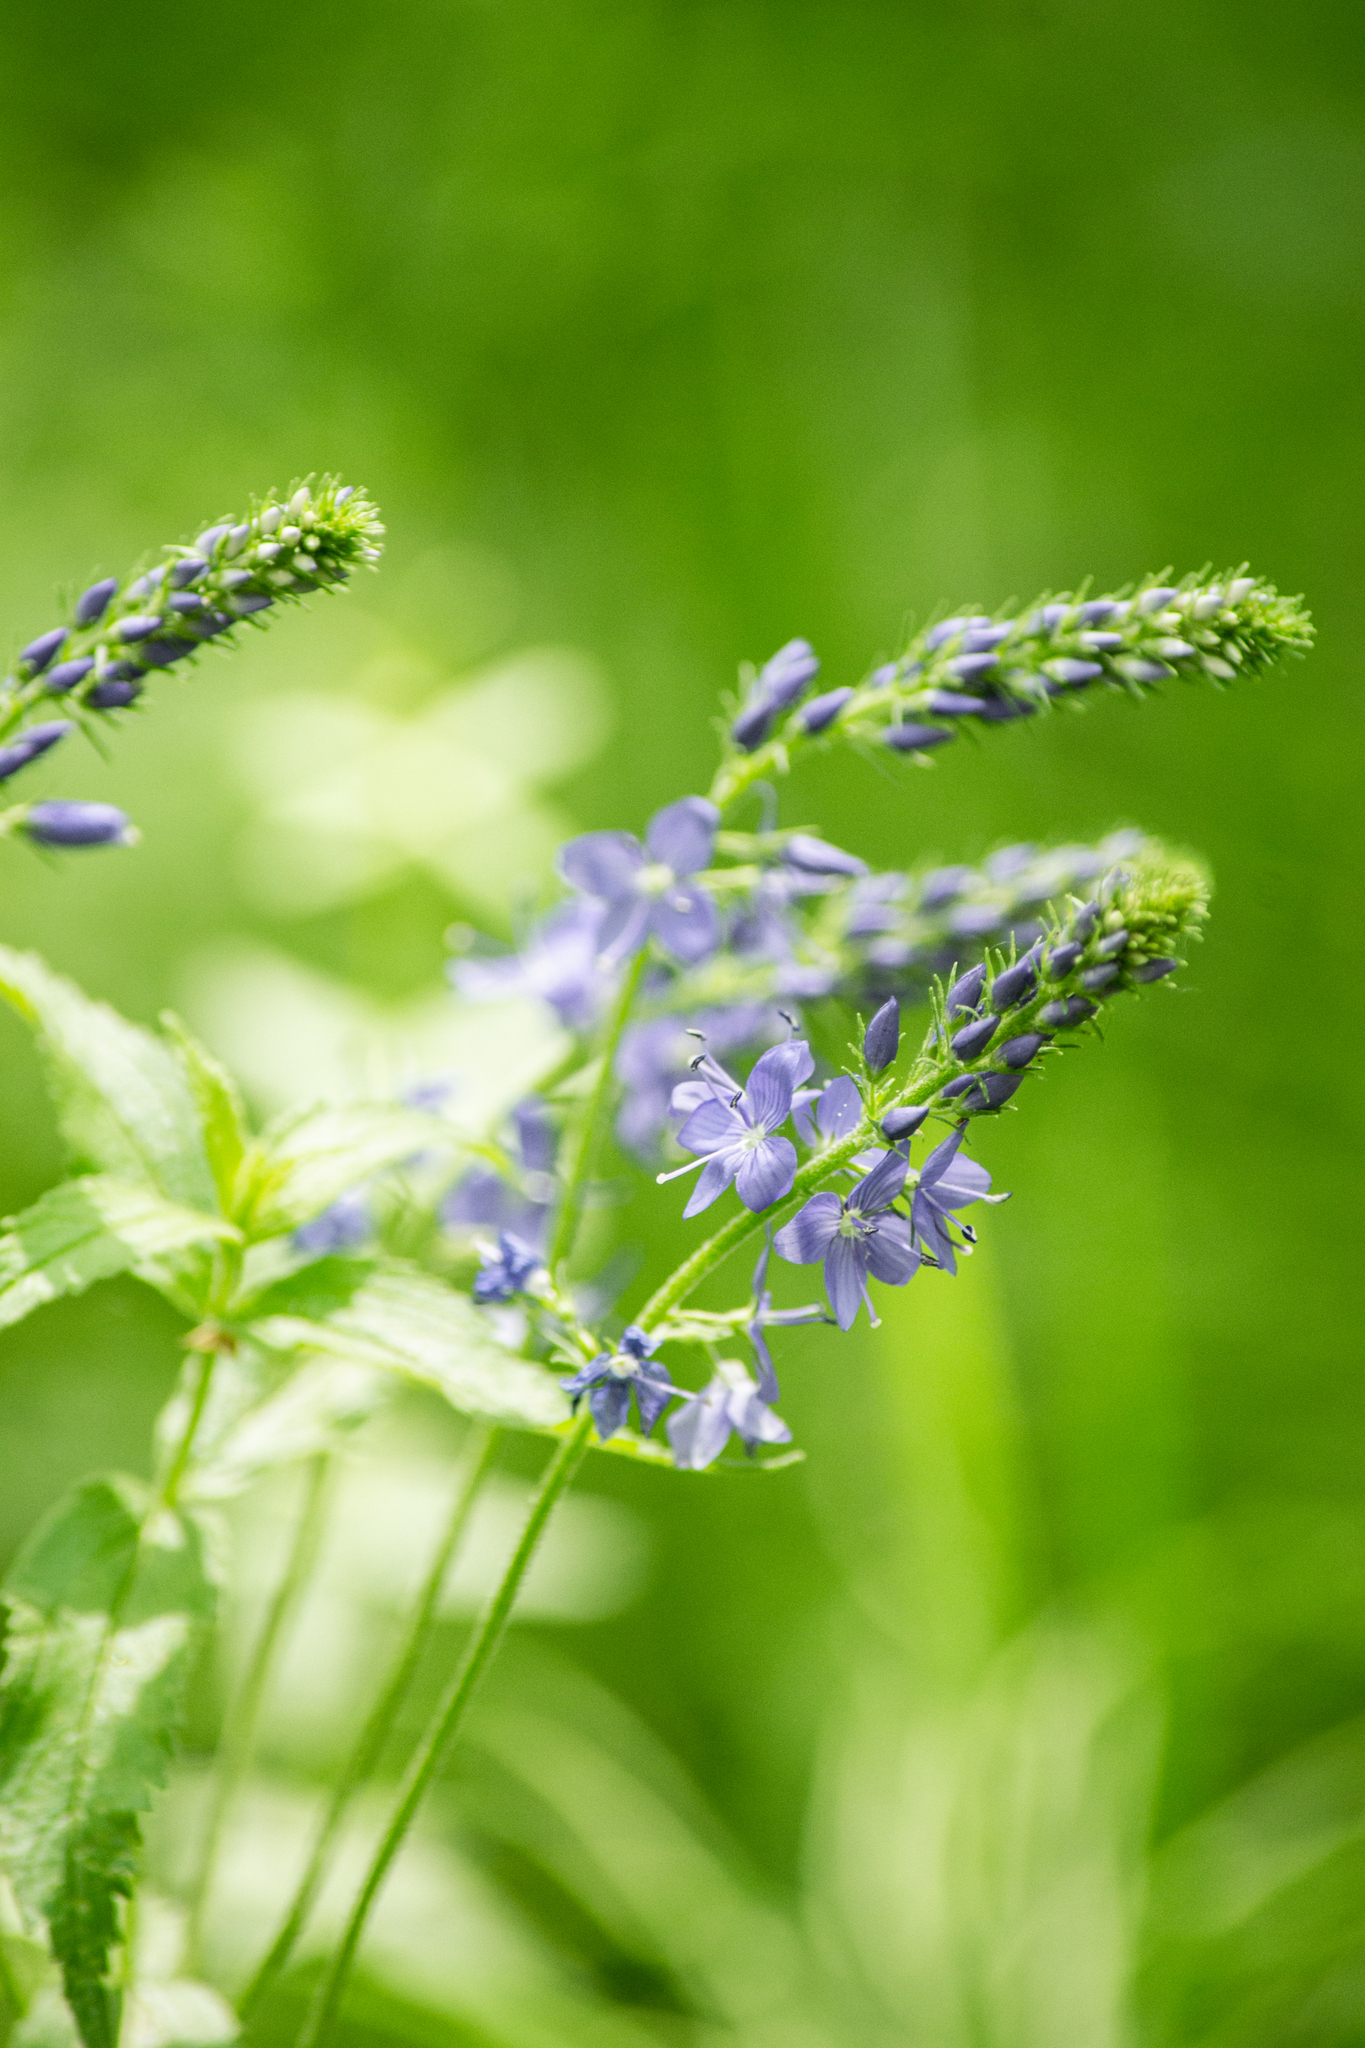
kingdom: Plantae
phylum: Tracheophyta
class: Magnoliopsida
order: Lamiales
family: Plantaginaceae
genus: Veronica
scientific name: Veronica teucrium
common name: Large speedwell
